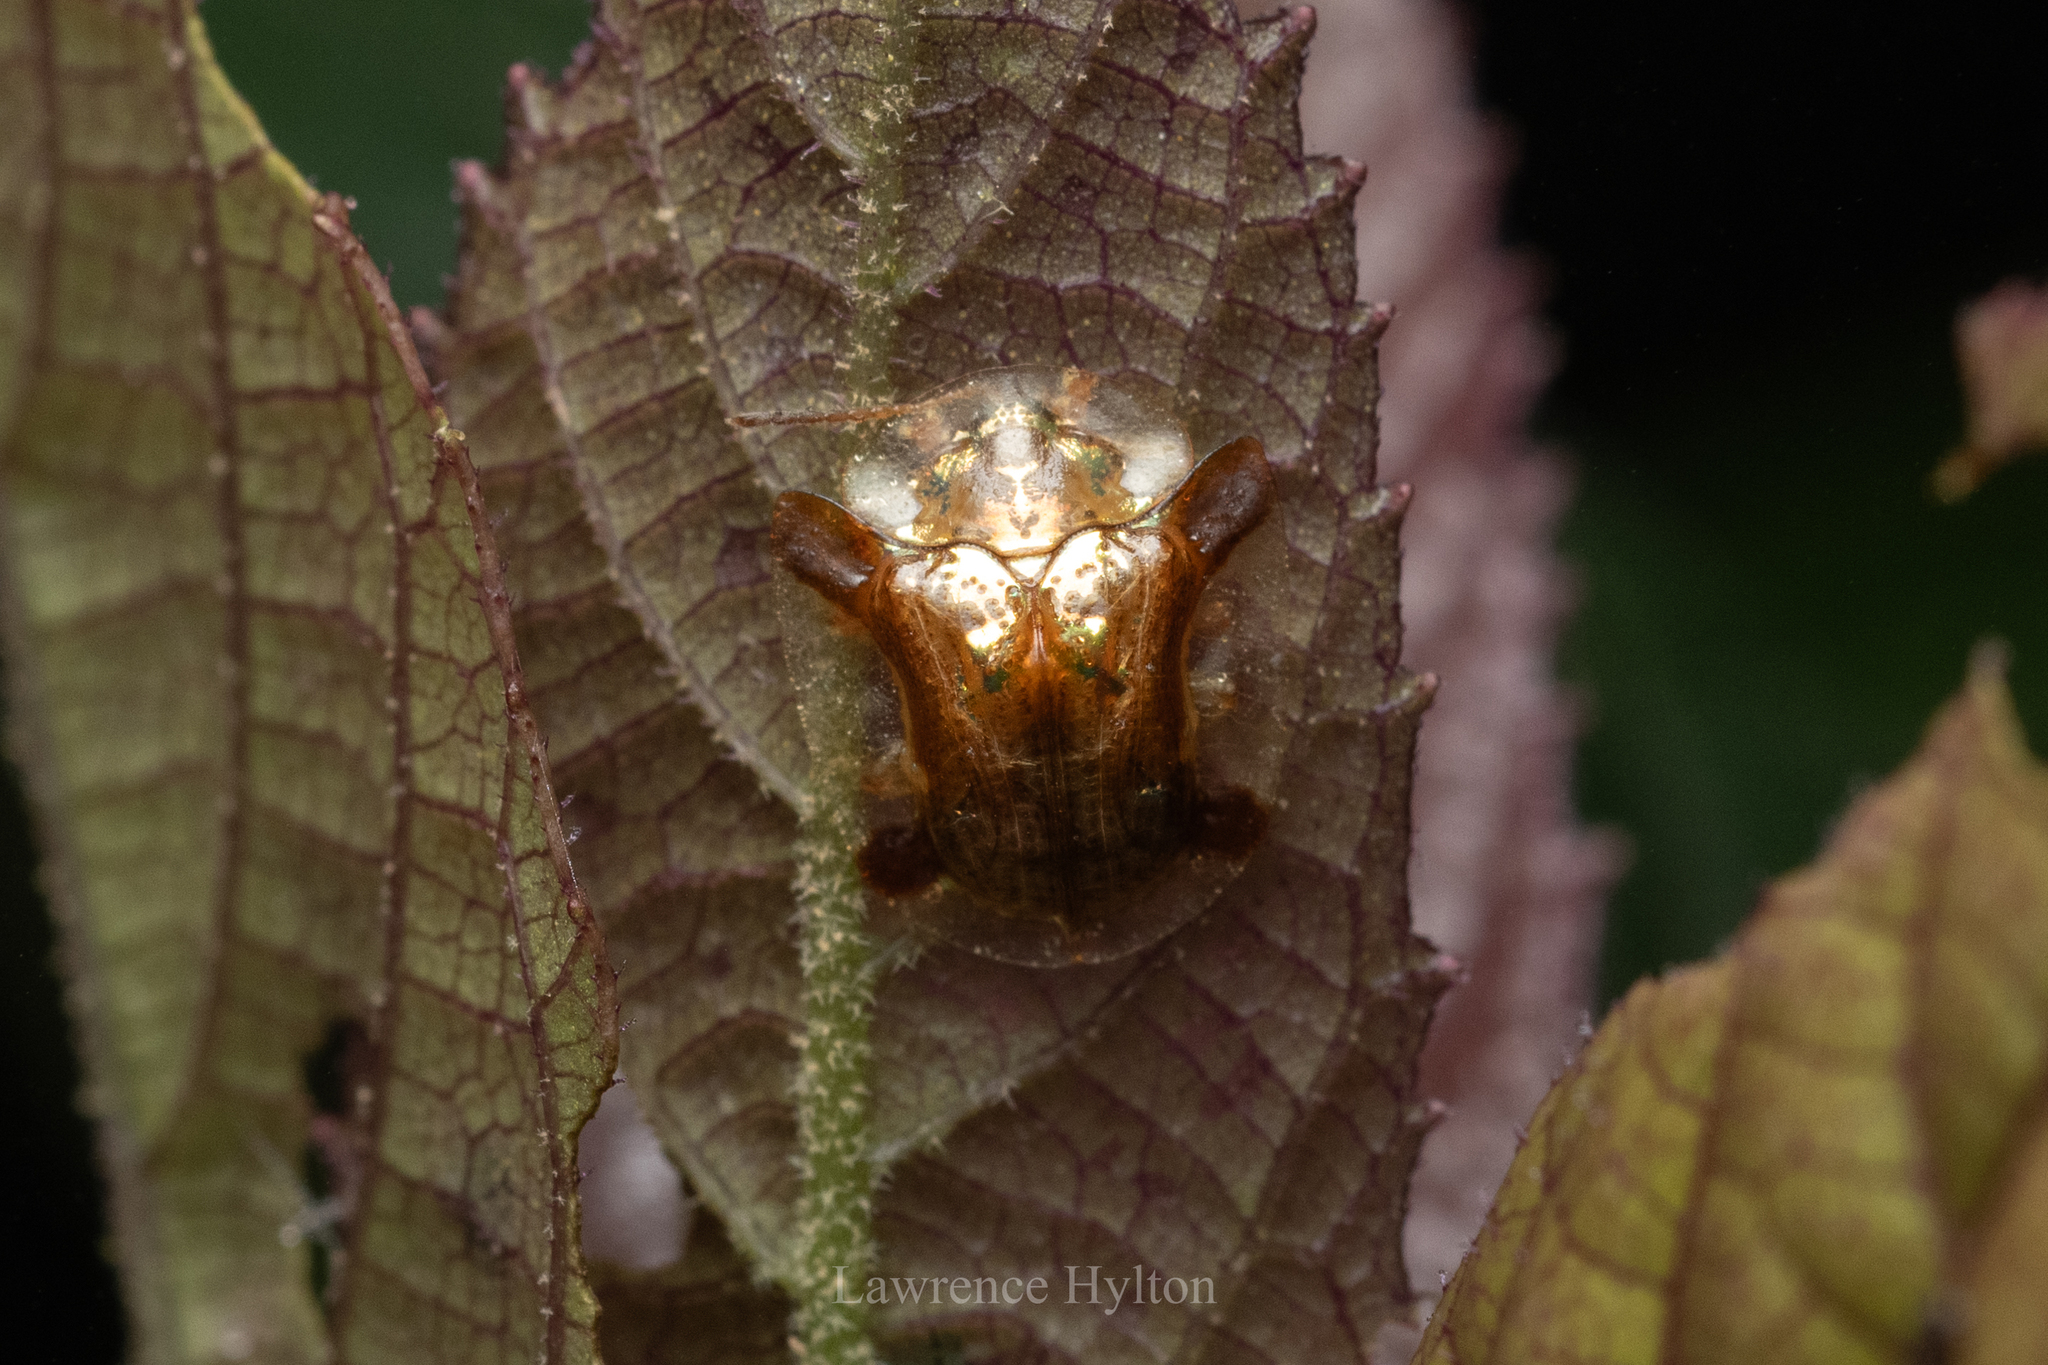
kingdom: Animalia
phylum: Arthropoda
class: Insecta
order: Coleoptera
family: Chrysomelidae
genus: Aspidimorpha
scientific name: Aspidimorpha sanctaecrucis
